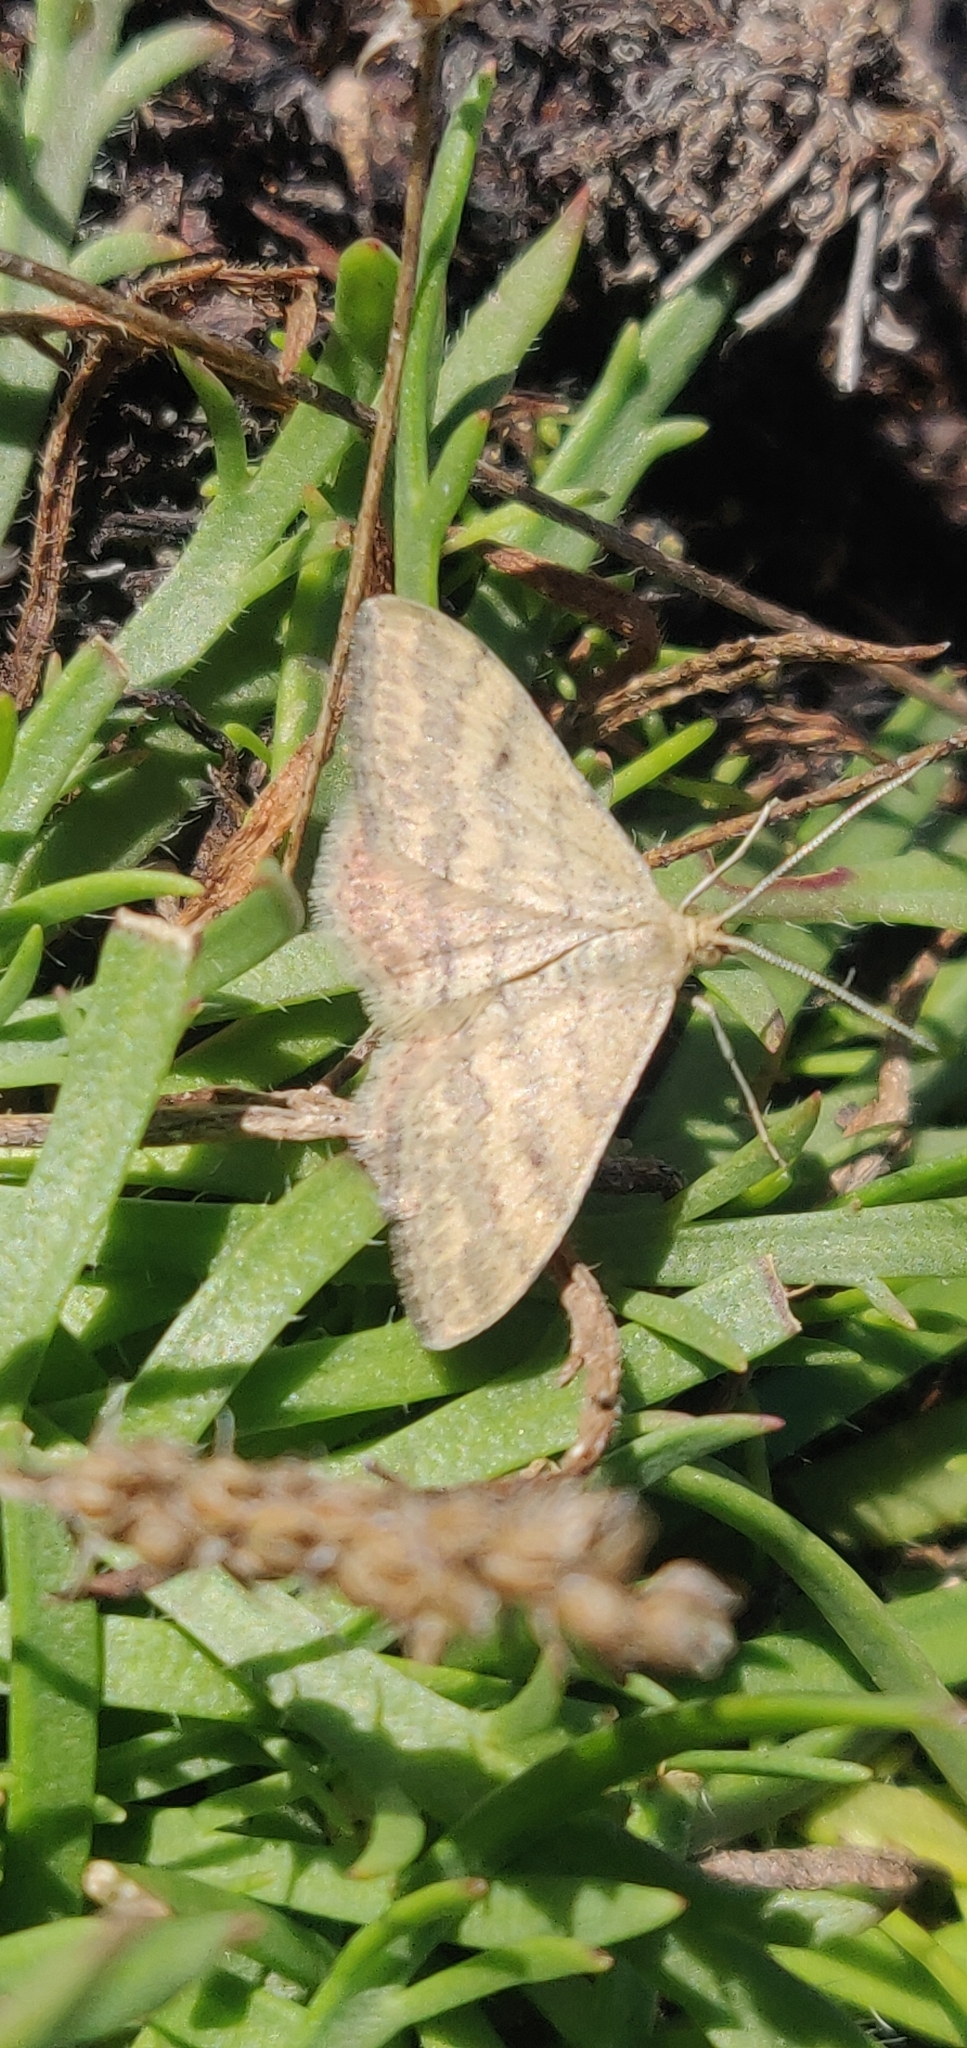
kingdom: Animalia
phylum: Arthropoda
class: Insecta
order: Lepidoptera
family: Geometridae
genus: Scopula
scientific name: Scopula rubraria
